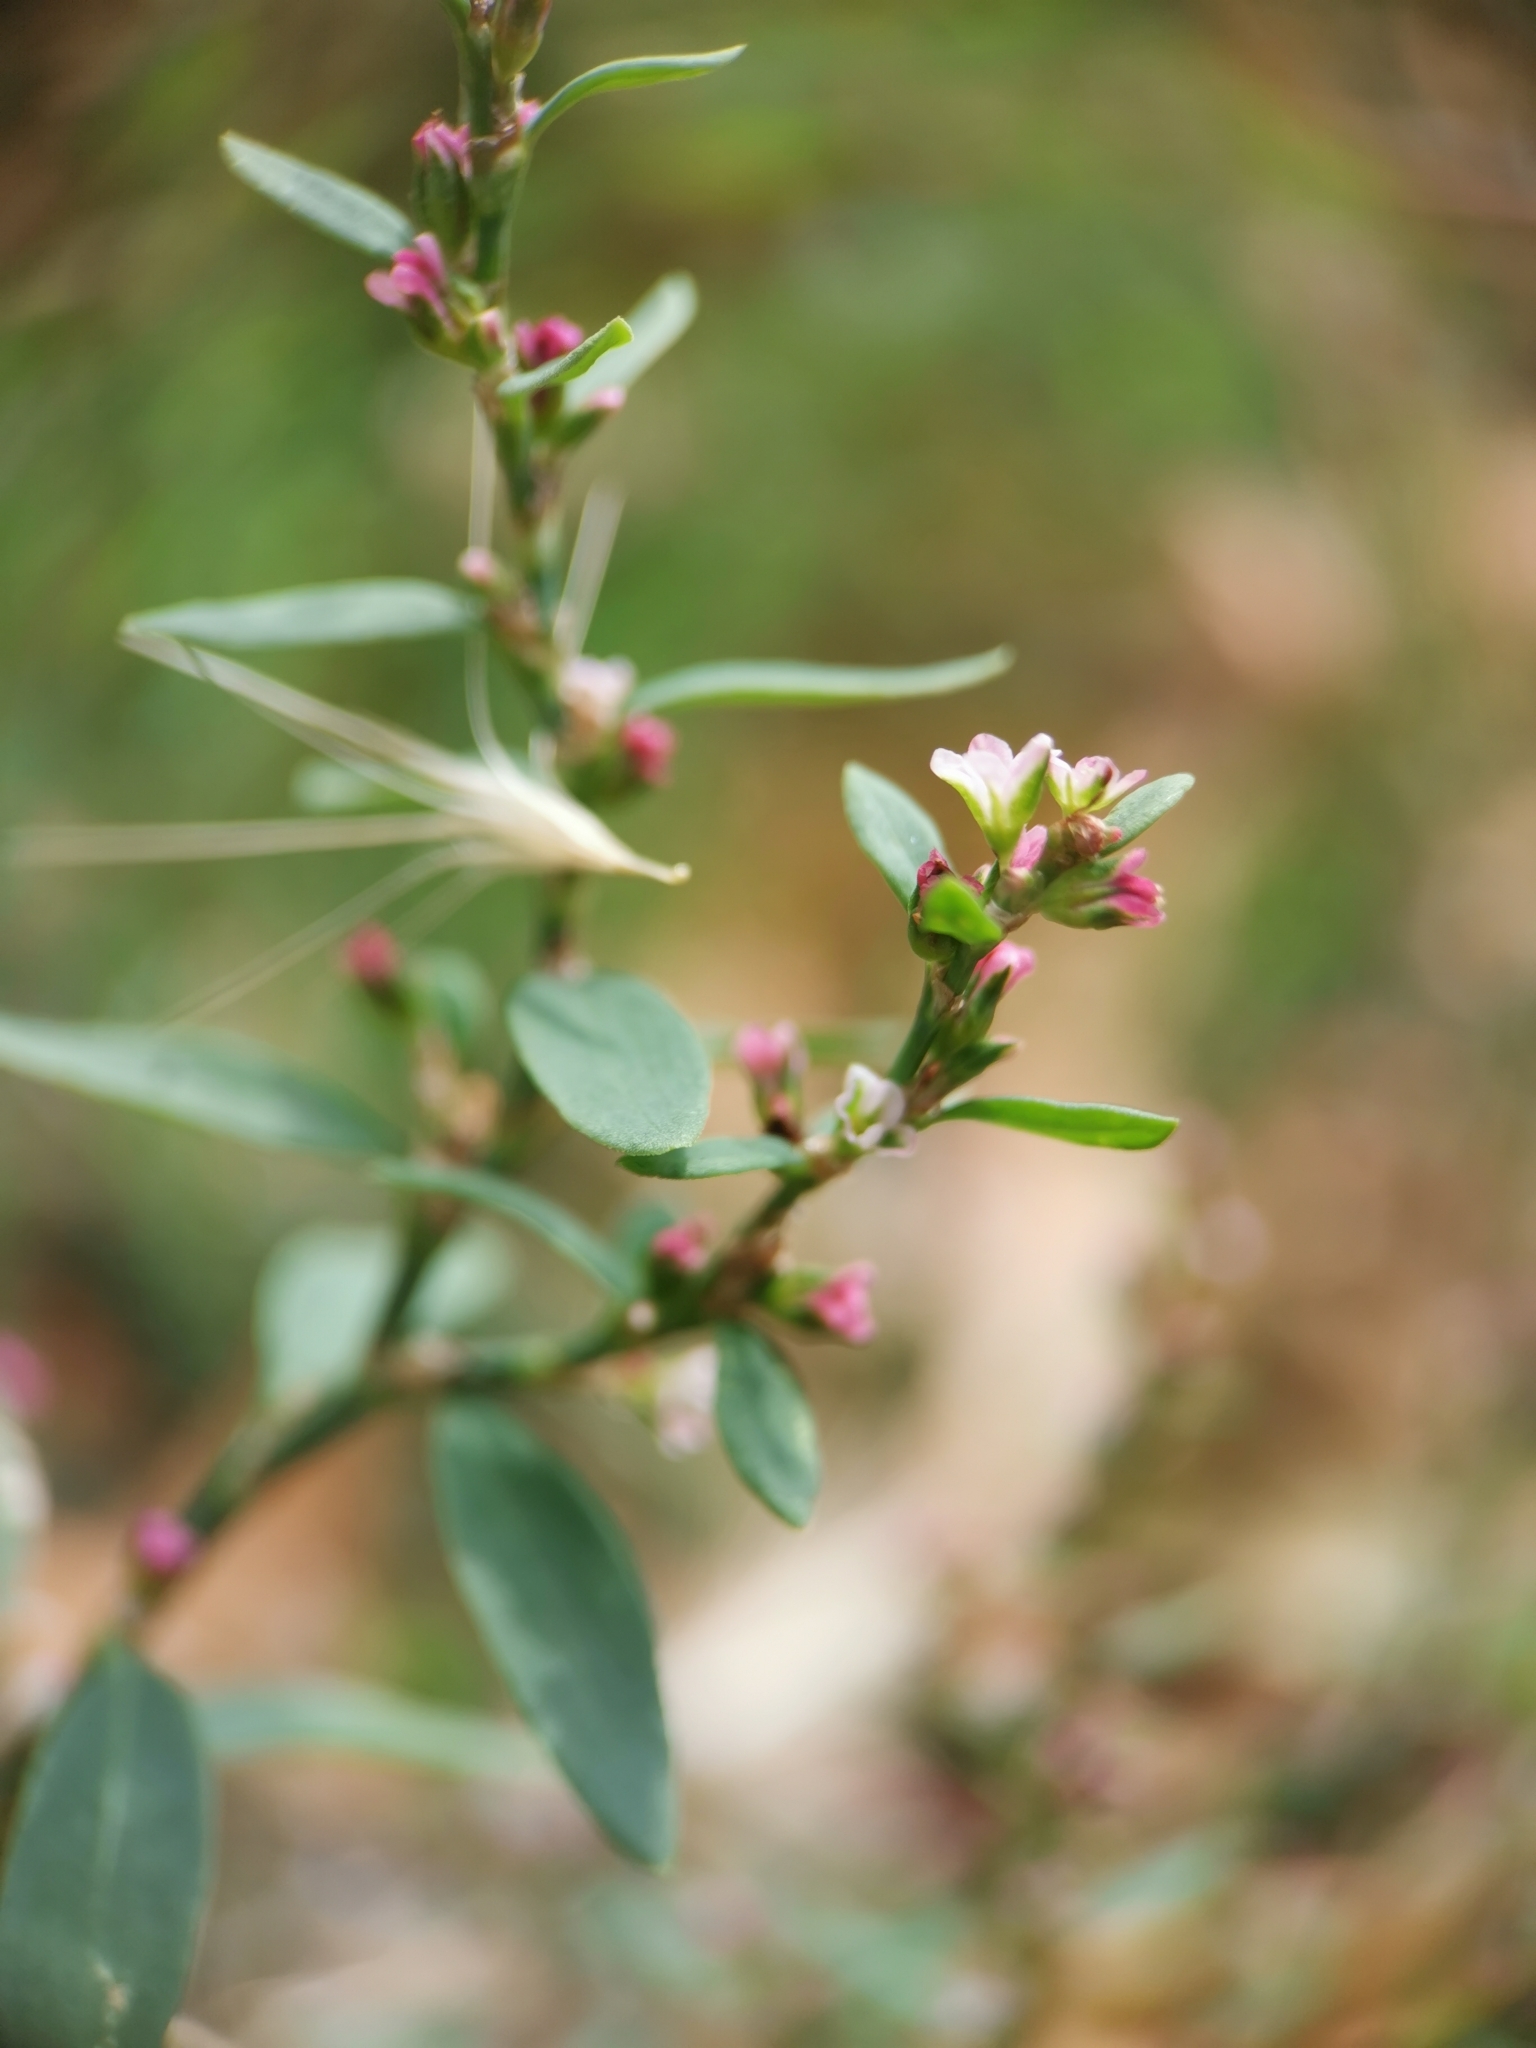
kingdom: Plantae
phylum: Tracheophyta
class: Magnoliopsida
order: Caryophyllales
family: Polygonaceae
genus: Polygonum
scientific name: Polygonum aviculare
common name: Prostrate knotweed
